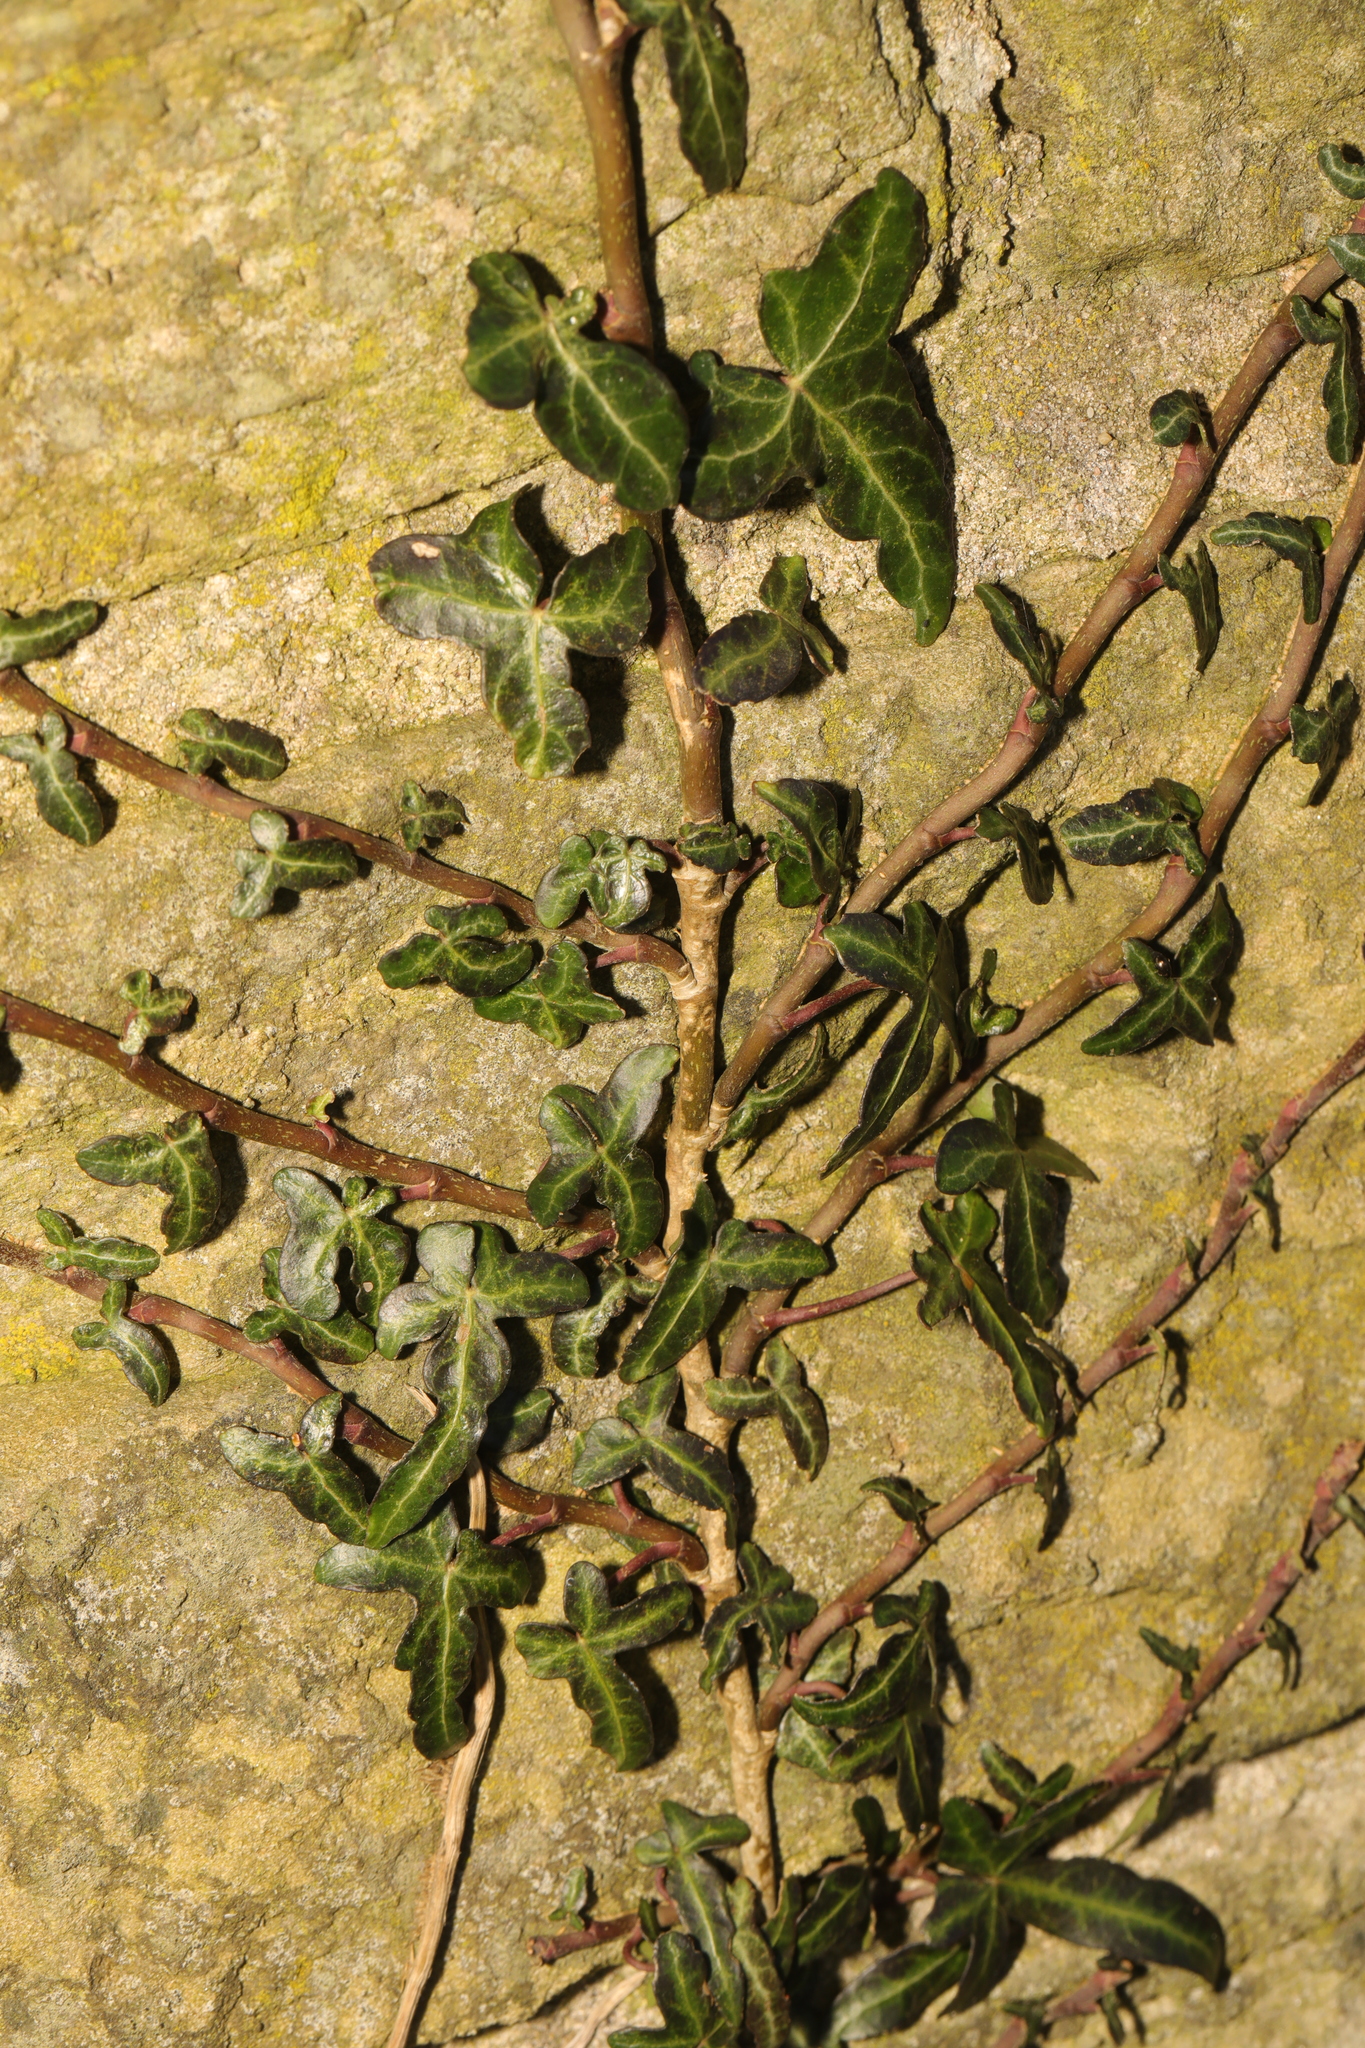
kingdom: Plantae
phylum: Tracheophyta
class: Magnoliopsida
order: Apiales
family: Araliaceae
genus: Hedera
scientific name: Hedera helix
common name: Ivy
